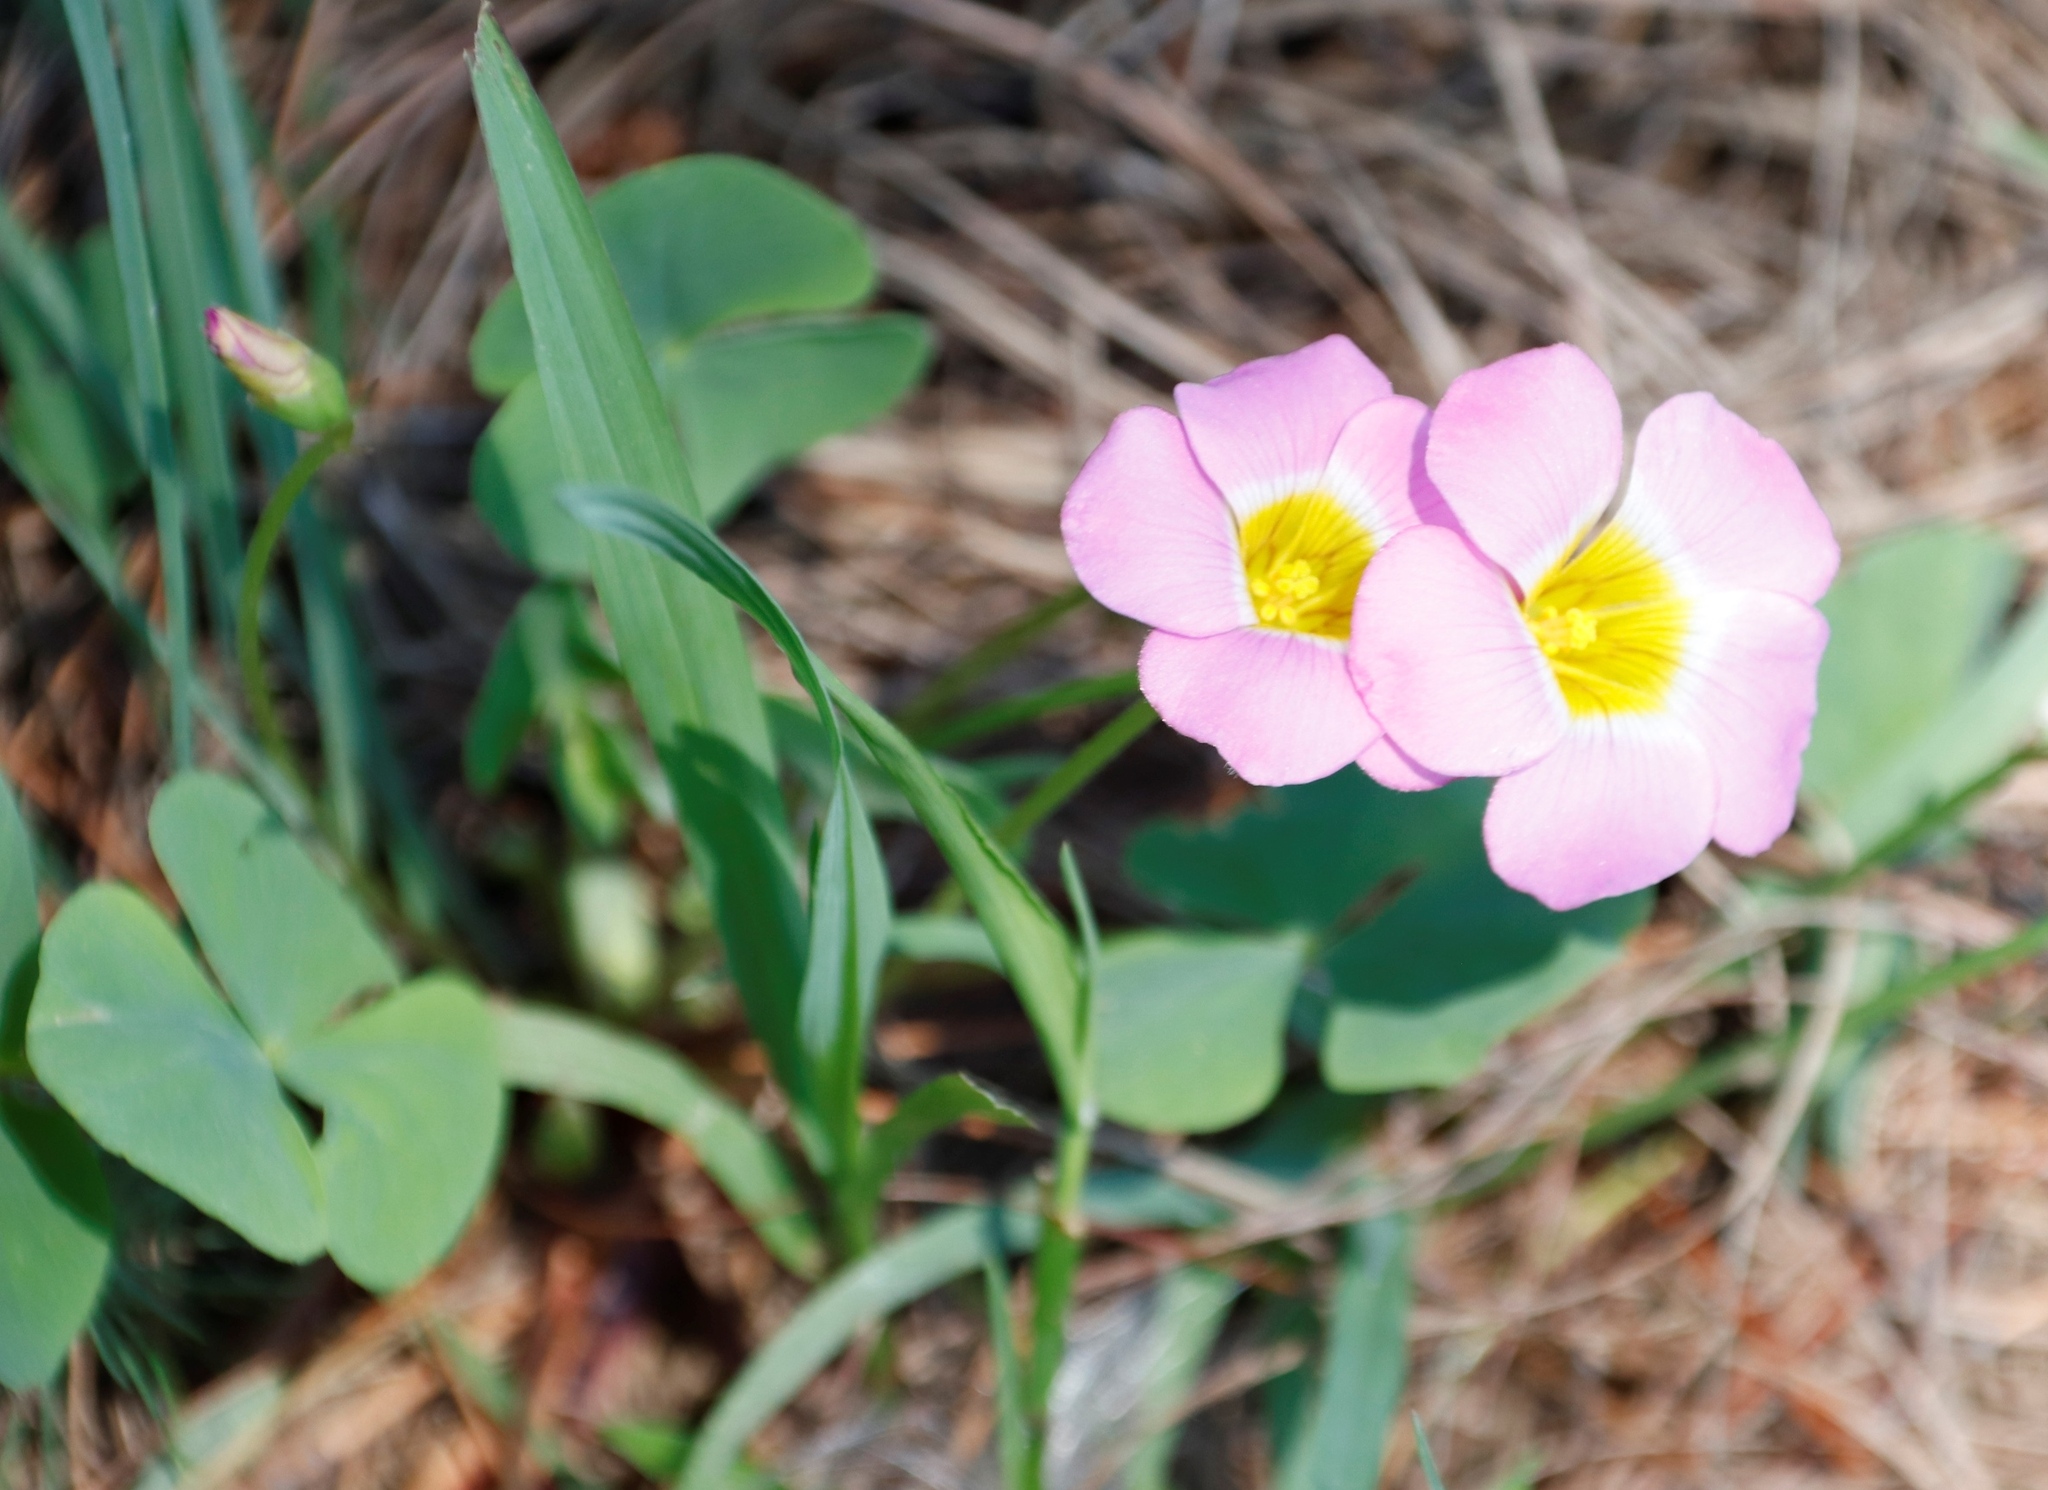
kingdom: Plantae
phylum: Tracheophyta
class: Magnoliopsida
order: Oxalidales
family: Oxalidaceae
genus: Oxalis
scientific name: Oxalis obliquifolia
